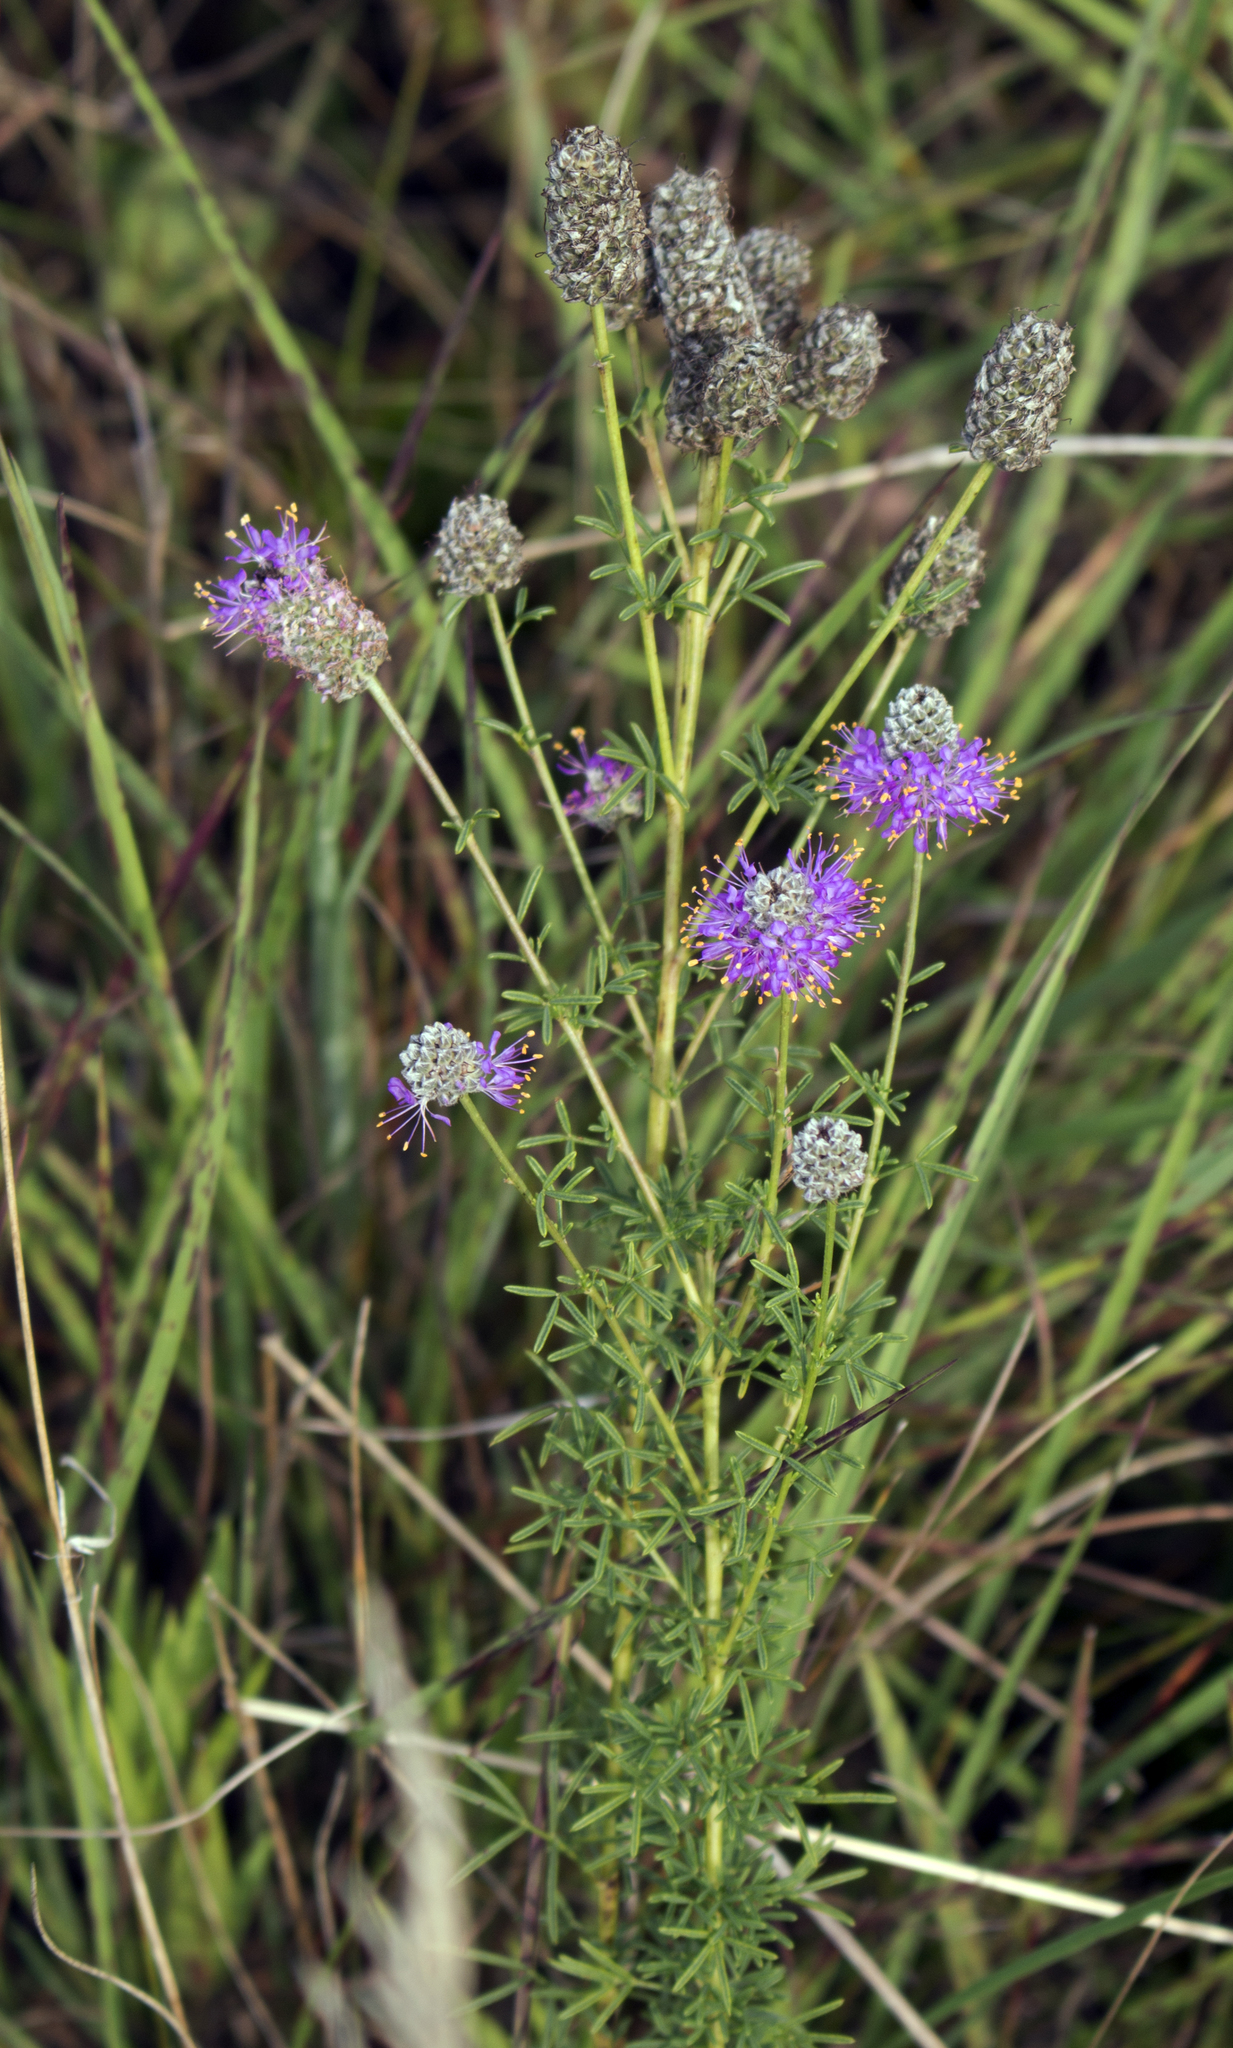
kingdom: Plantae
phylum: Tracheophyta
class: Magnoliopsida
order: Fabales
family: Fabaceae
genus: Dalea
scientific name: Dalea purpurea
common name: Purple prairie-clover
